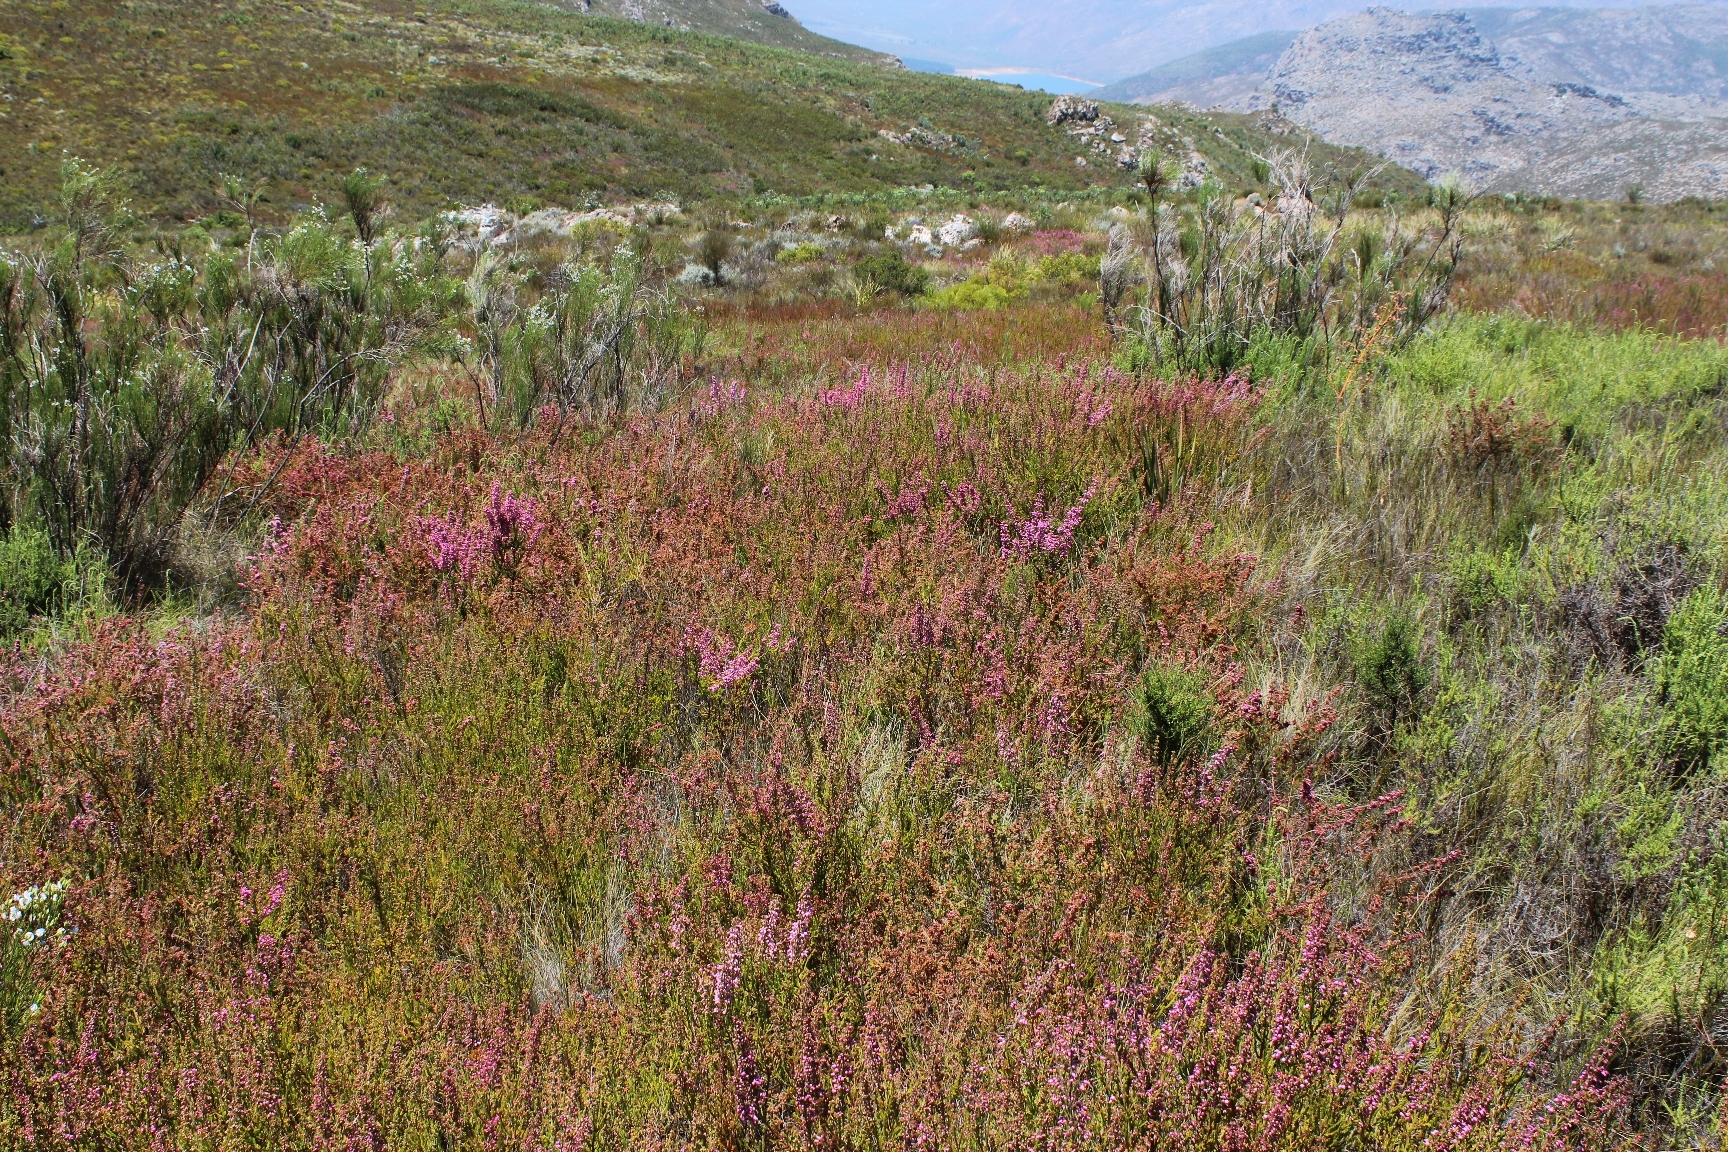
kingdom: Plantae
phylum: Tracheophyta
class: Magnoliopsida
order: Ericales
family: Ericaceae
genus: Erica
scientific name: Erica lateralis
